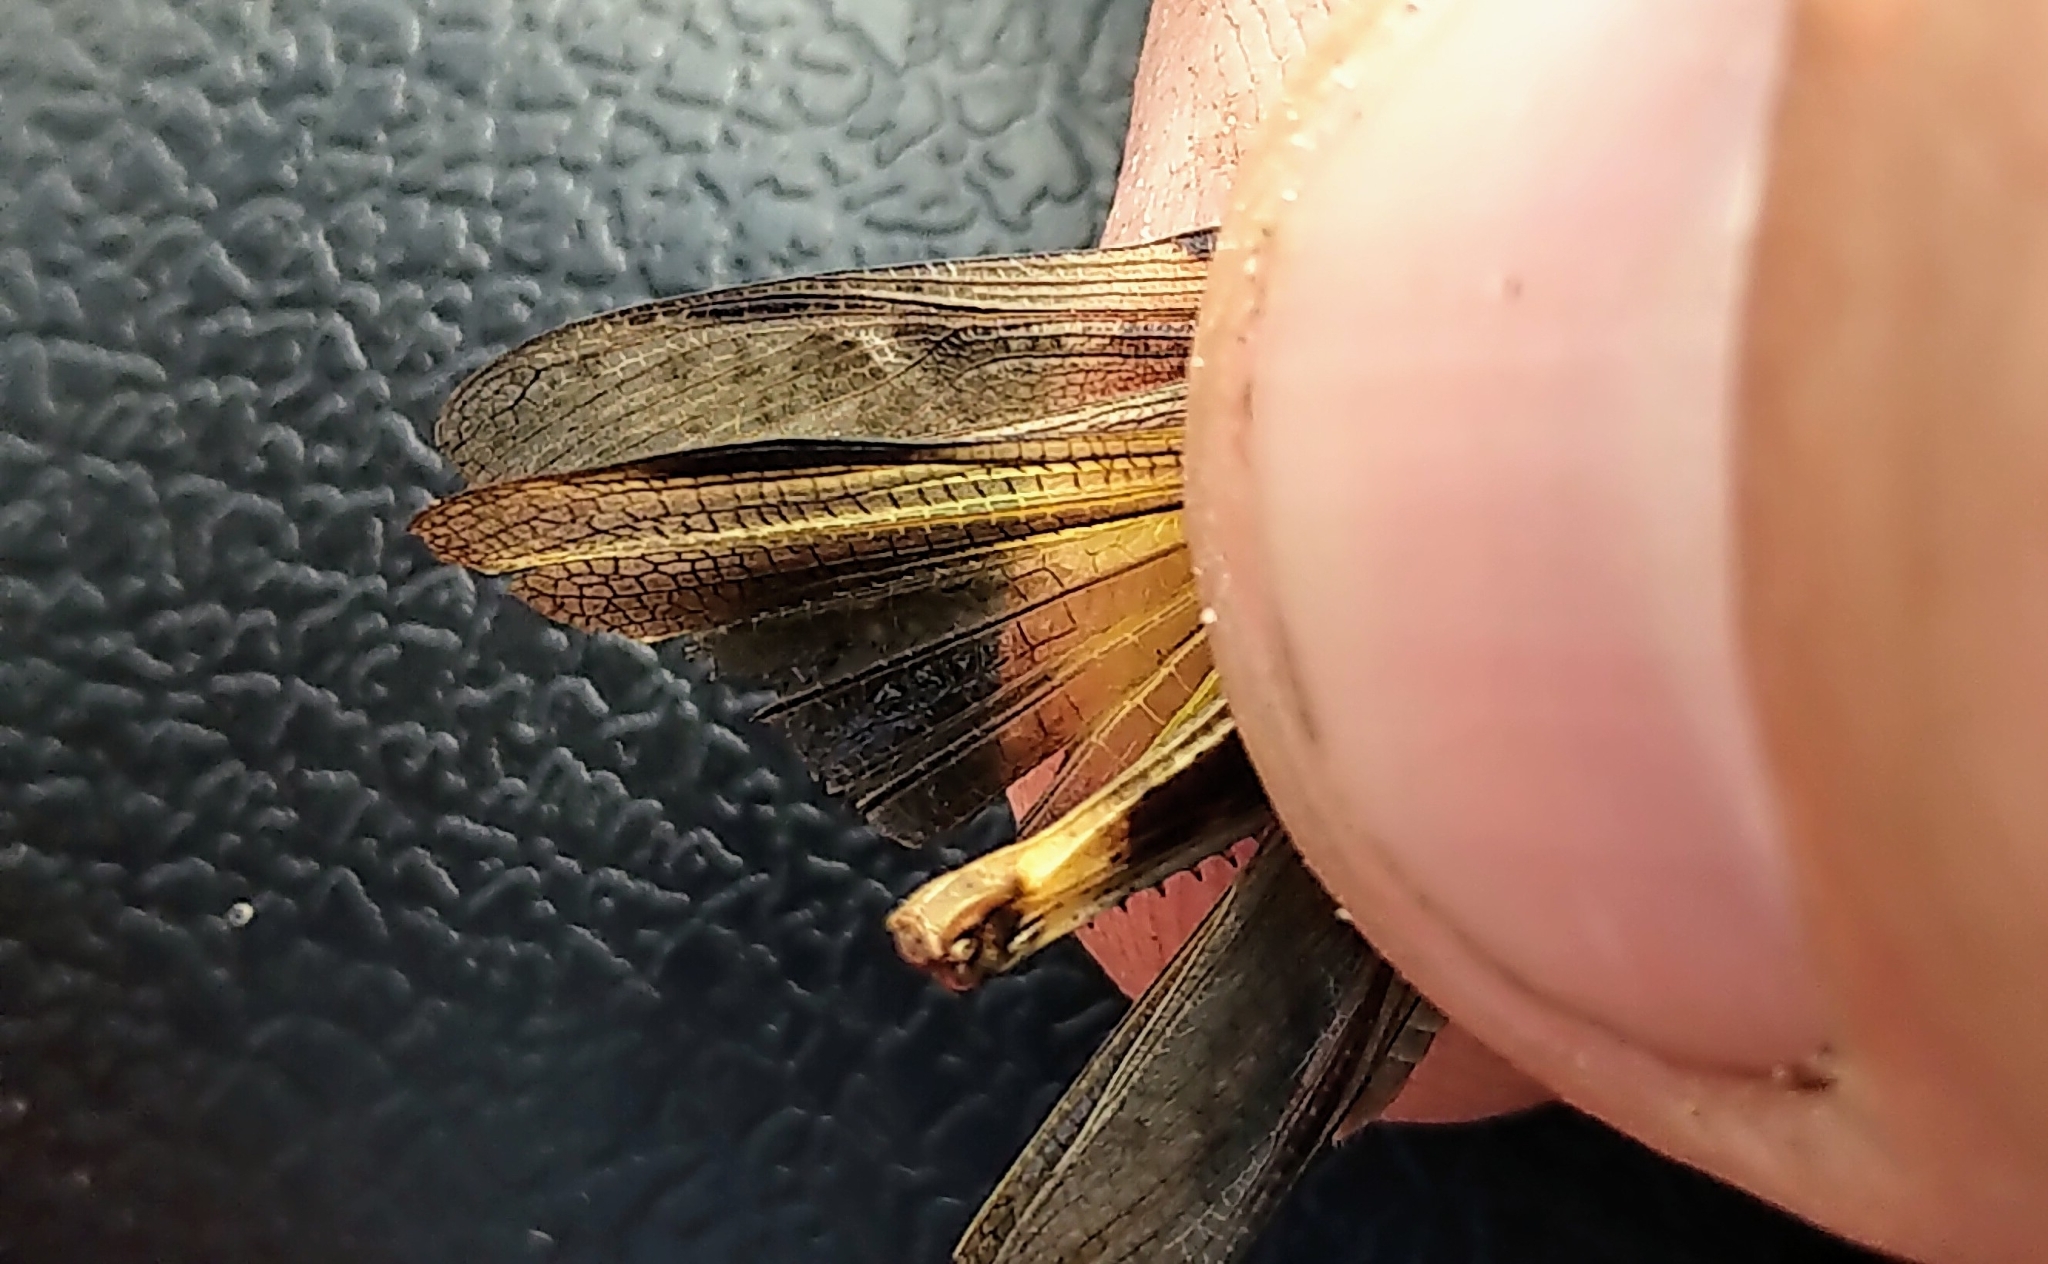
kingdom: Animalia
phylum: Arthropoda
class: Insecta
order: Orthoptera
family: Acrididae
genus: Chortophaga
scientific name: Chortophaga viridifasciata
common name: Green-striped grasshopper
